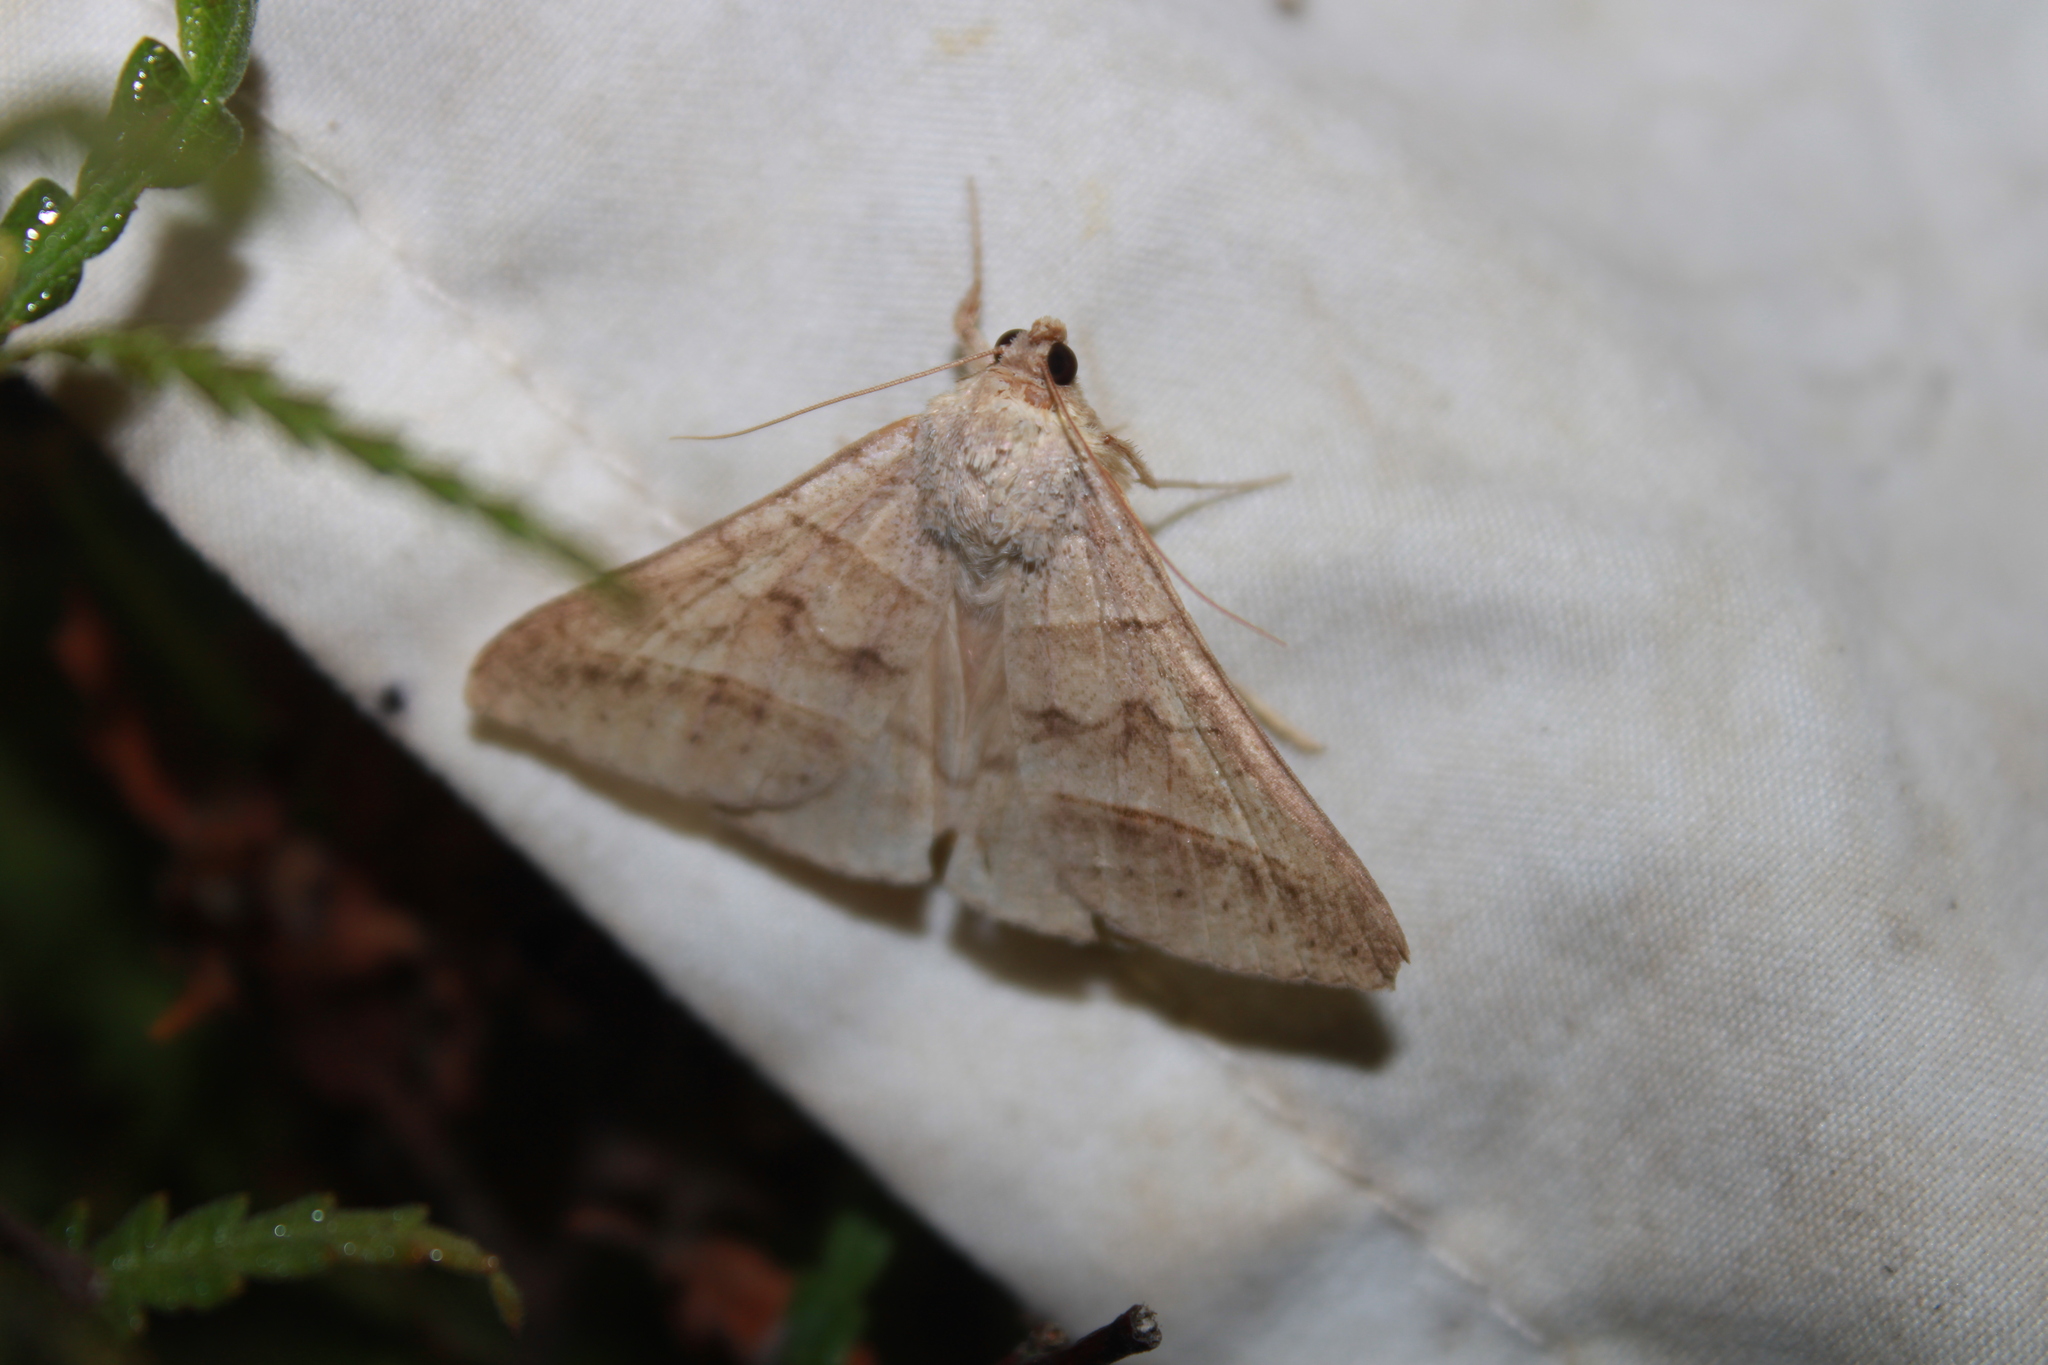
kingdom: Animalia
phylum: Arthropoda
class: Insecta
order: Lepidoptera
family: Erebidae
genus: Mocis
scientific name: Mocis texana
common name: Texas mocis moth
